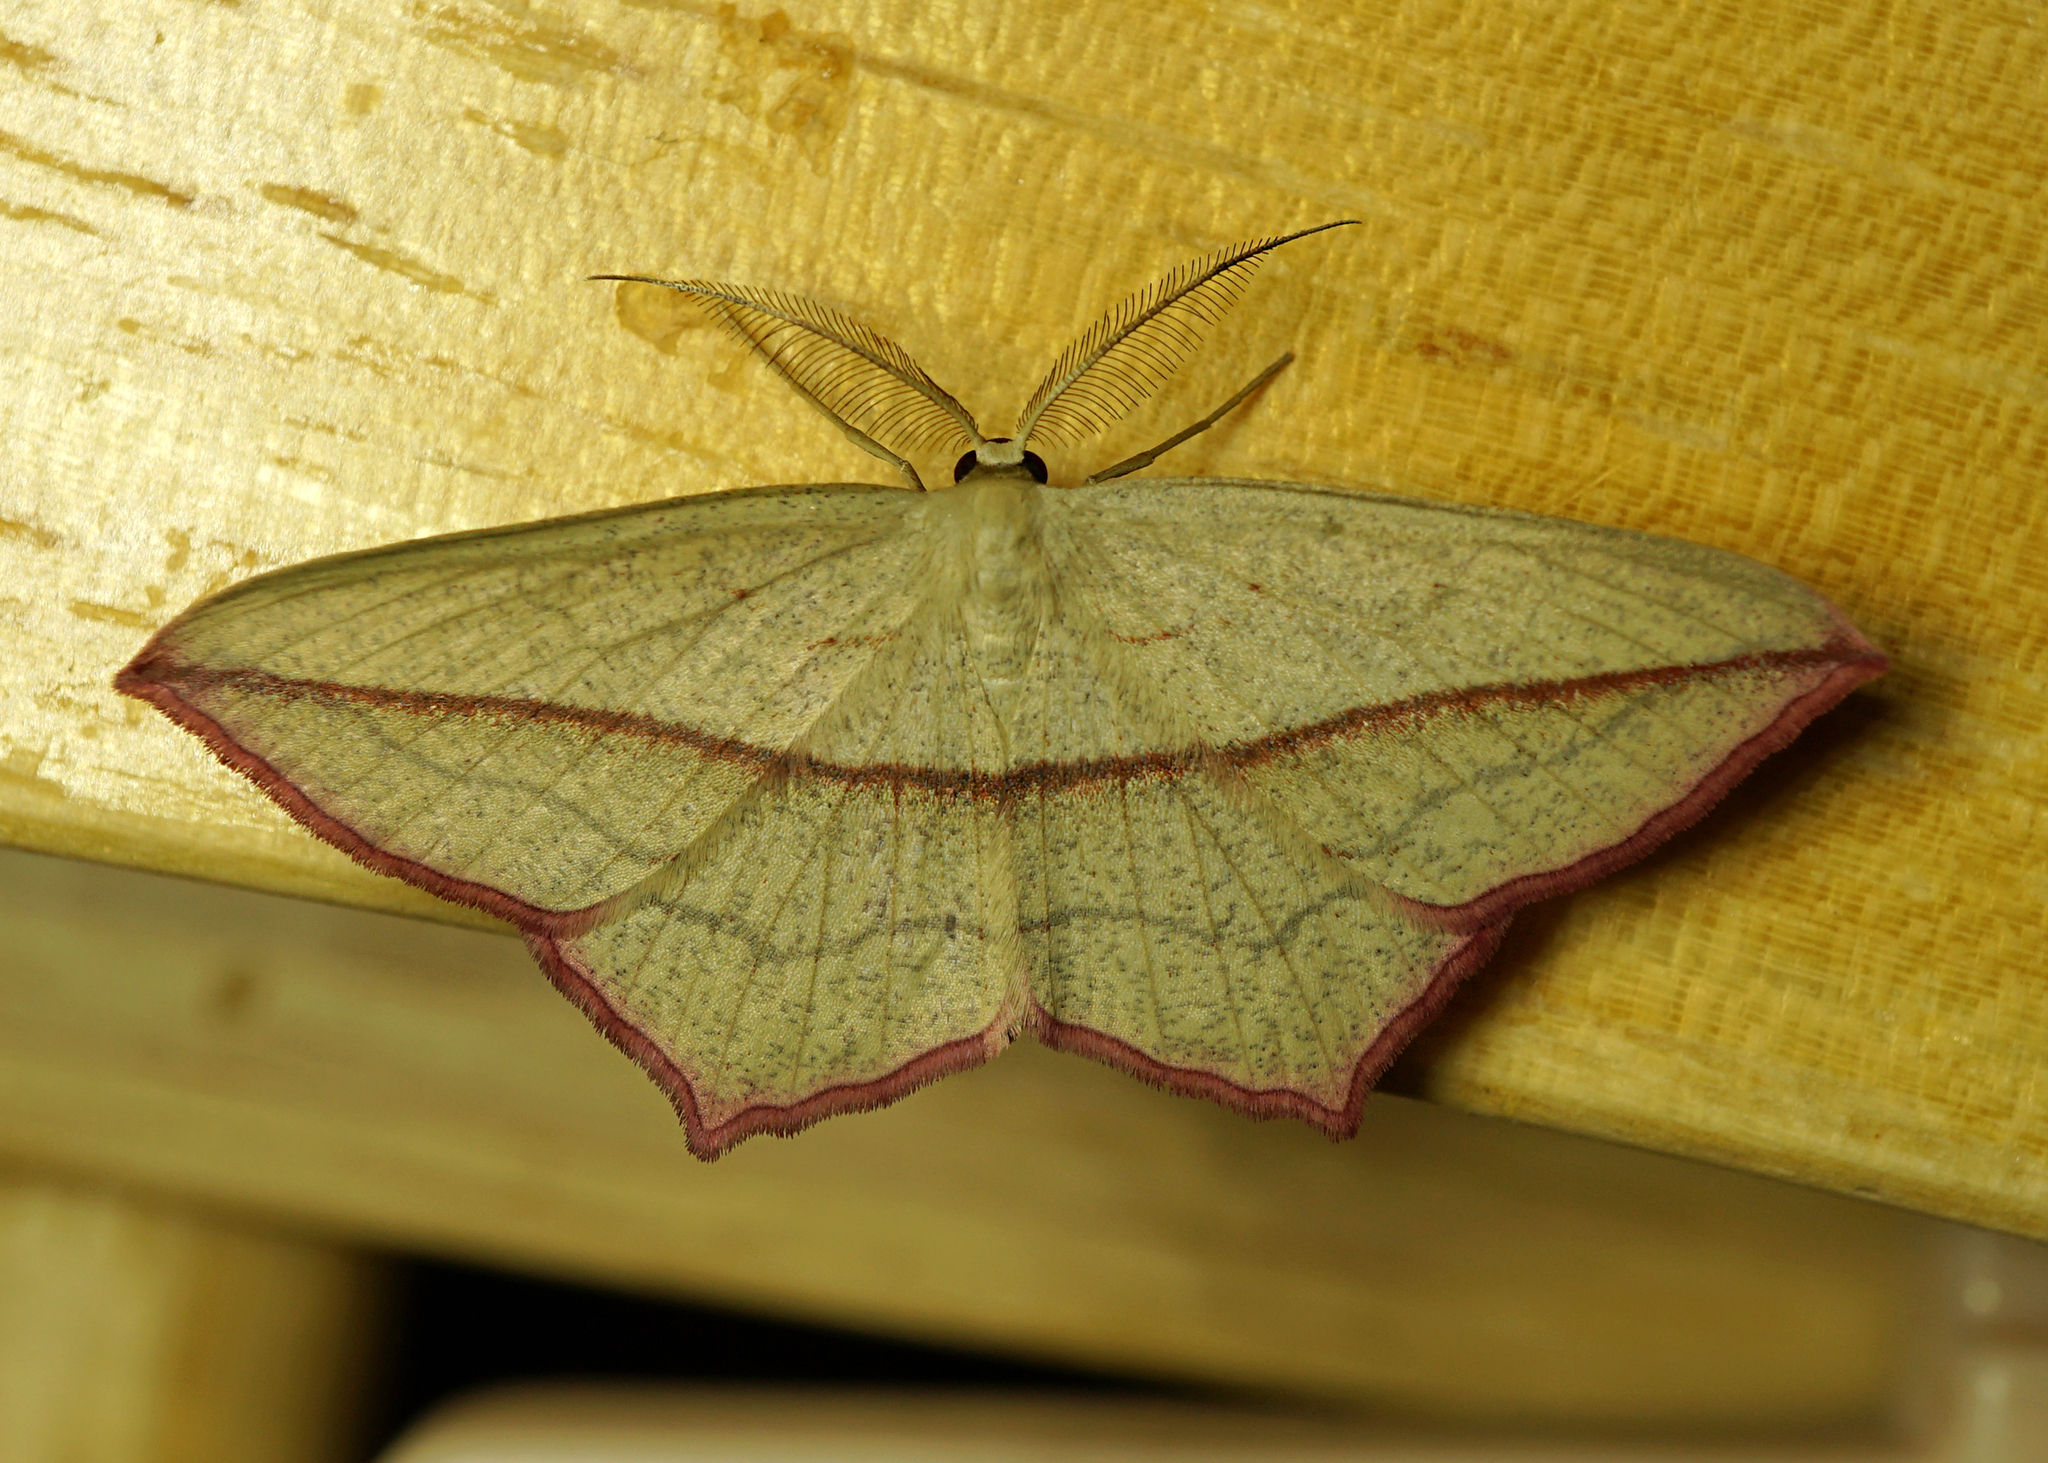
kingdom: Animalia
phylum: Arthropoda
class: Insecta
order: Lepidoptera
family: Geometridae
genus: Timandra
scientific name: Timandra comae
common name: Blood-vein
